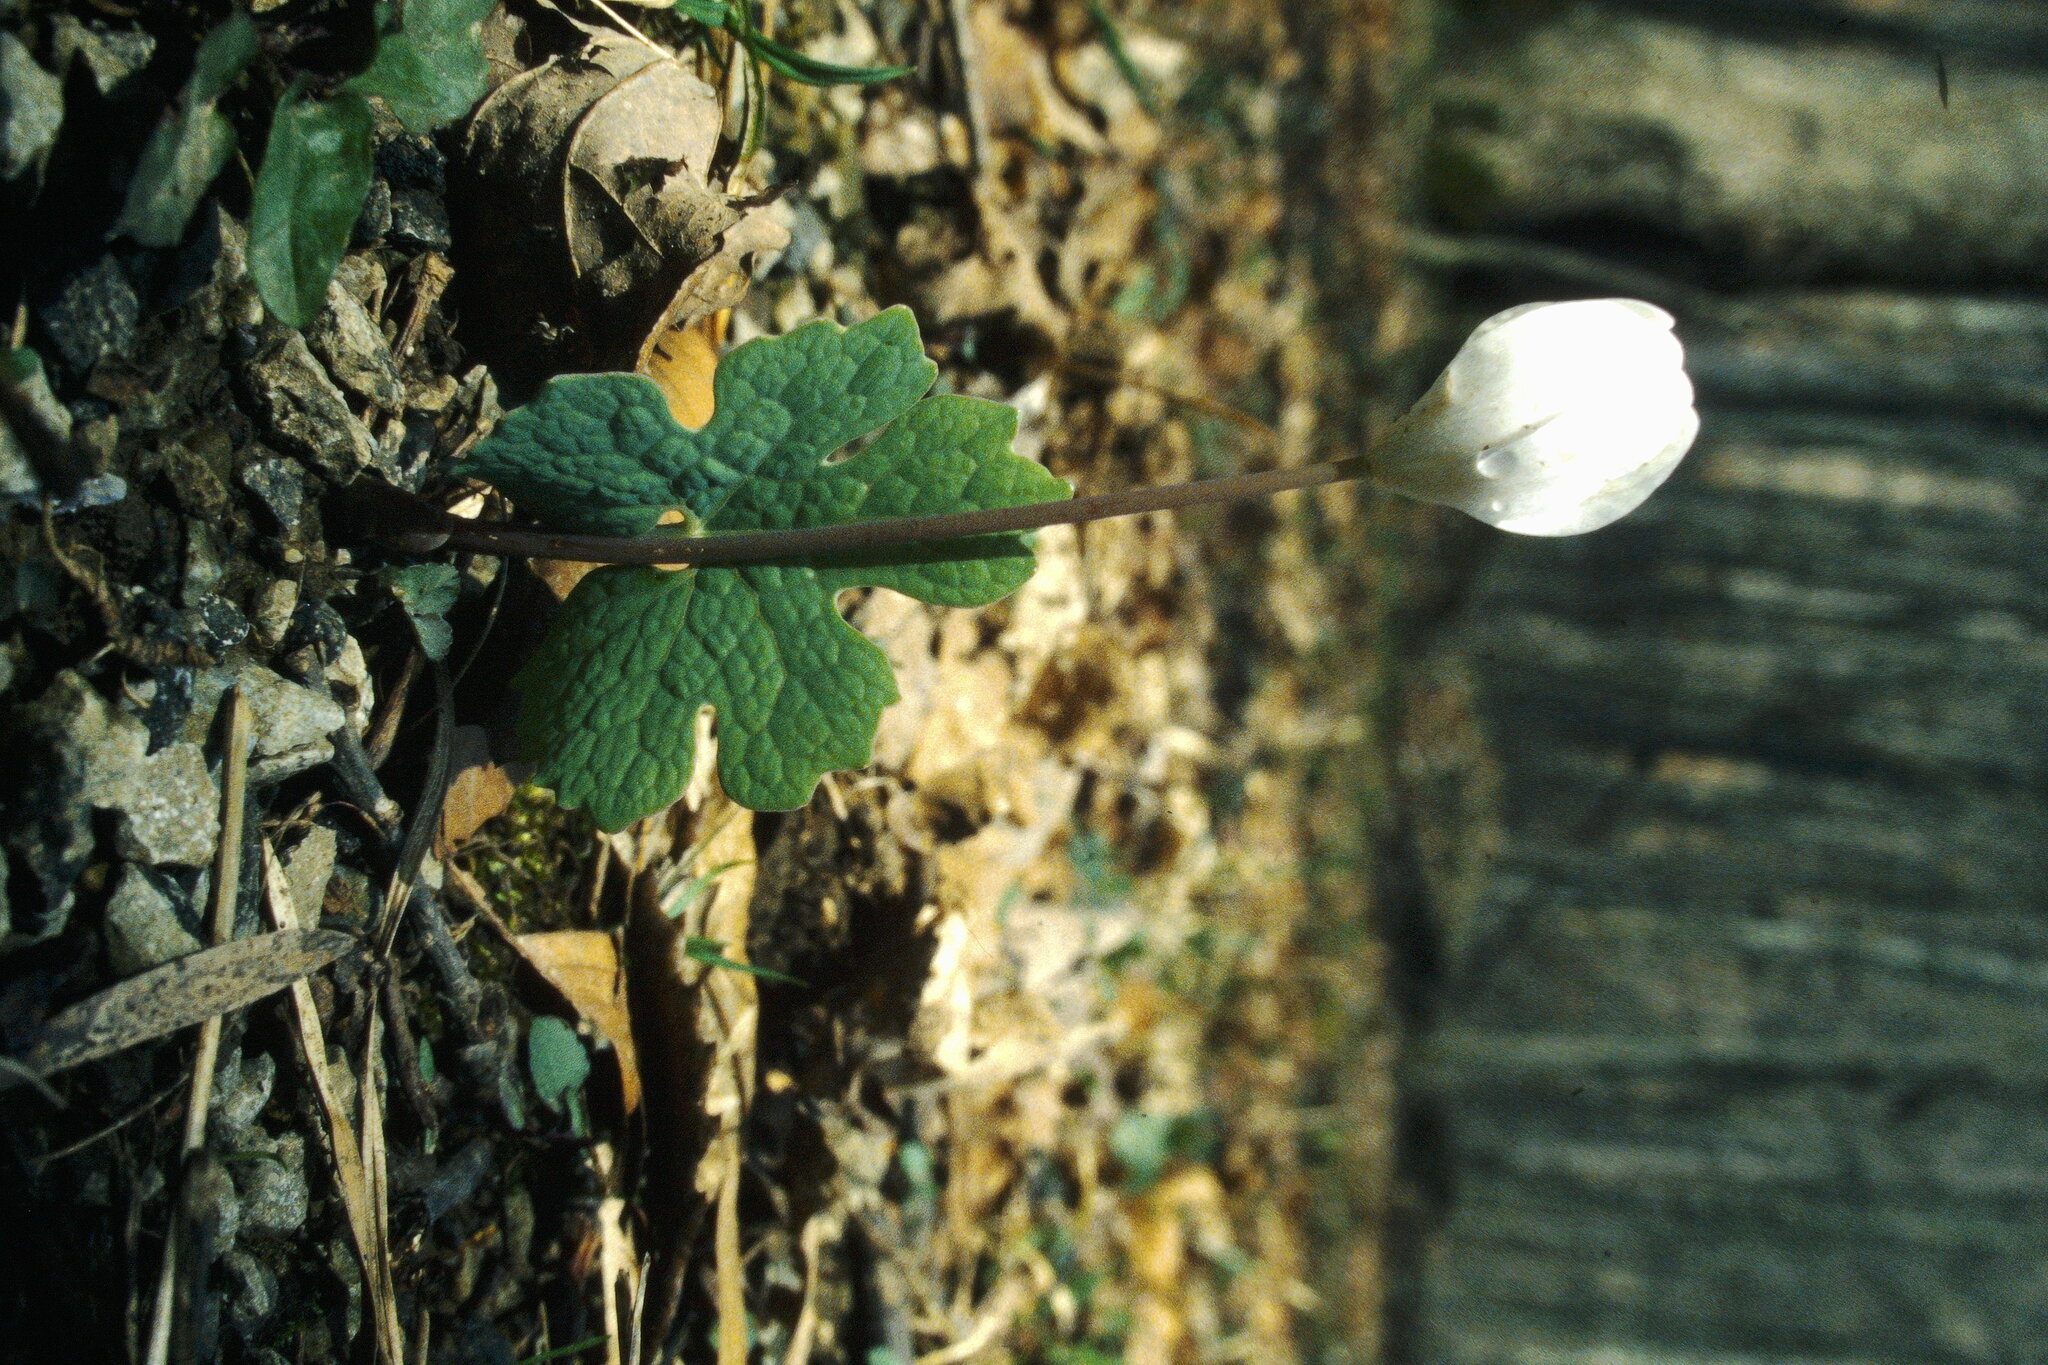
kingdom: Plantae
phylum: Tracheophyta
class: Magnoliopsida
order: Ranunculales
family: Papaveraceae
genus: Sanguinaria
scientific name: Sanguinaria canadensis
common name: Bloodroot
